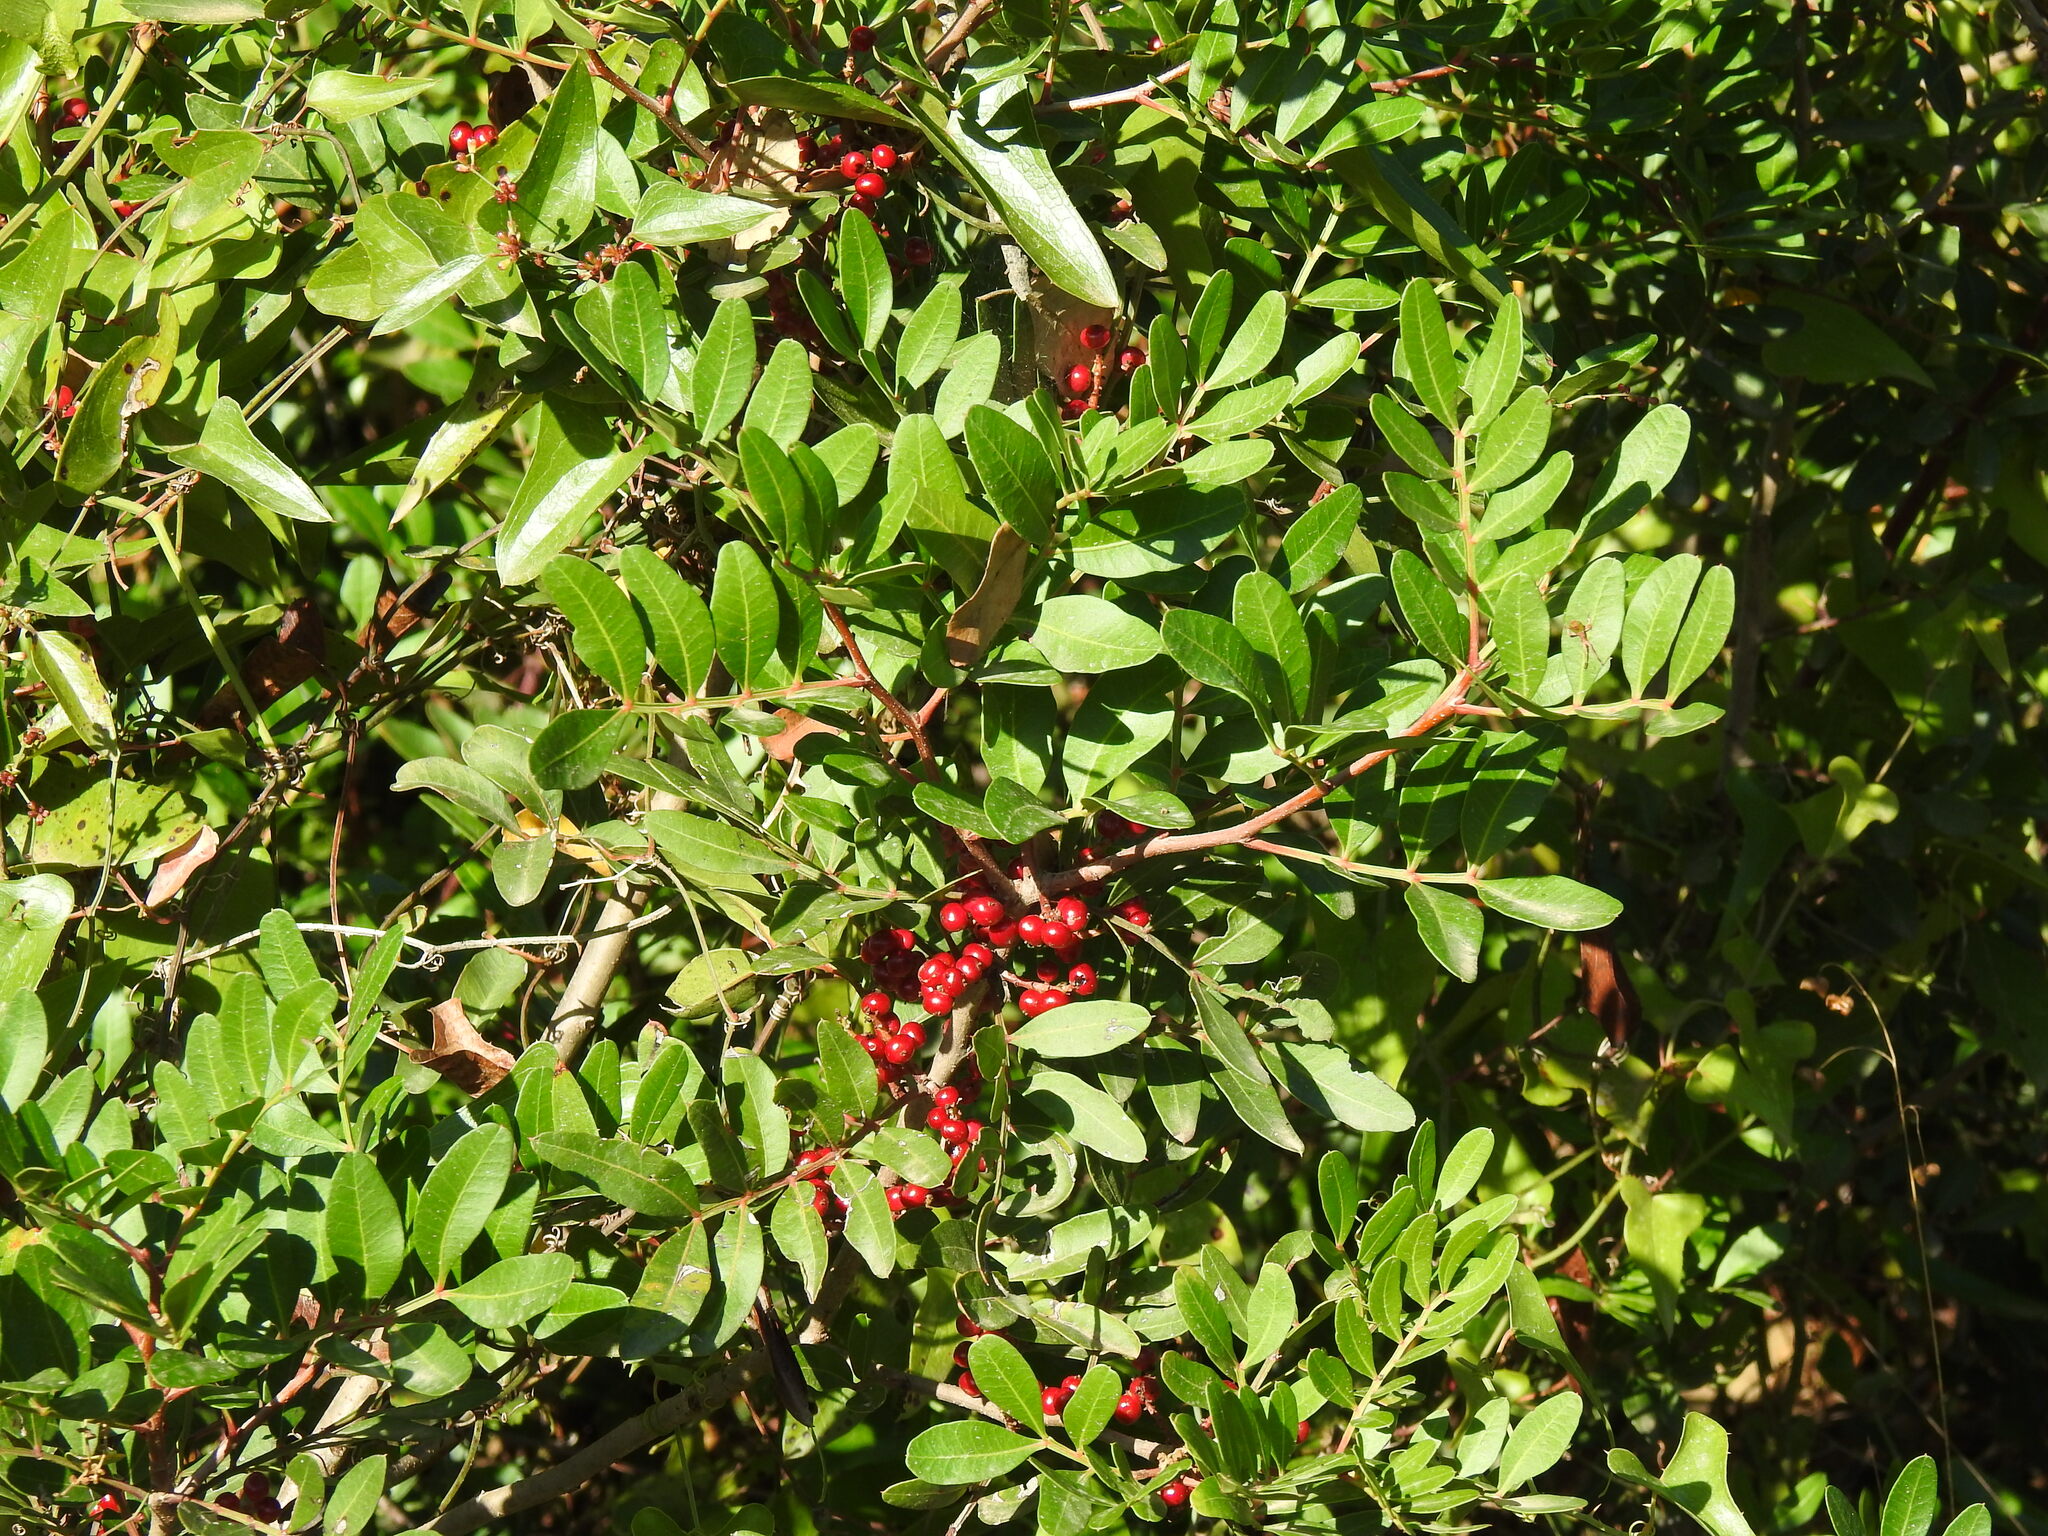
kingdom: Plantae
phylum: Tracheophyta
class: Magnoliopsida
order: Sapindales
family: Anacardiaceae
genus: Pistacia
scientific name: Pistacia lentiscus
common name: Lentisk
